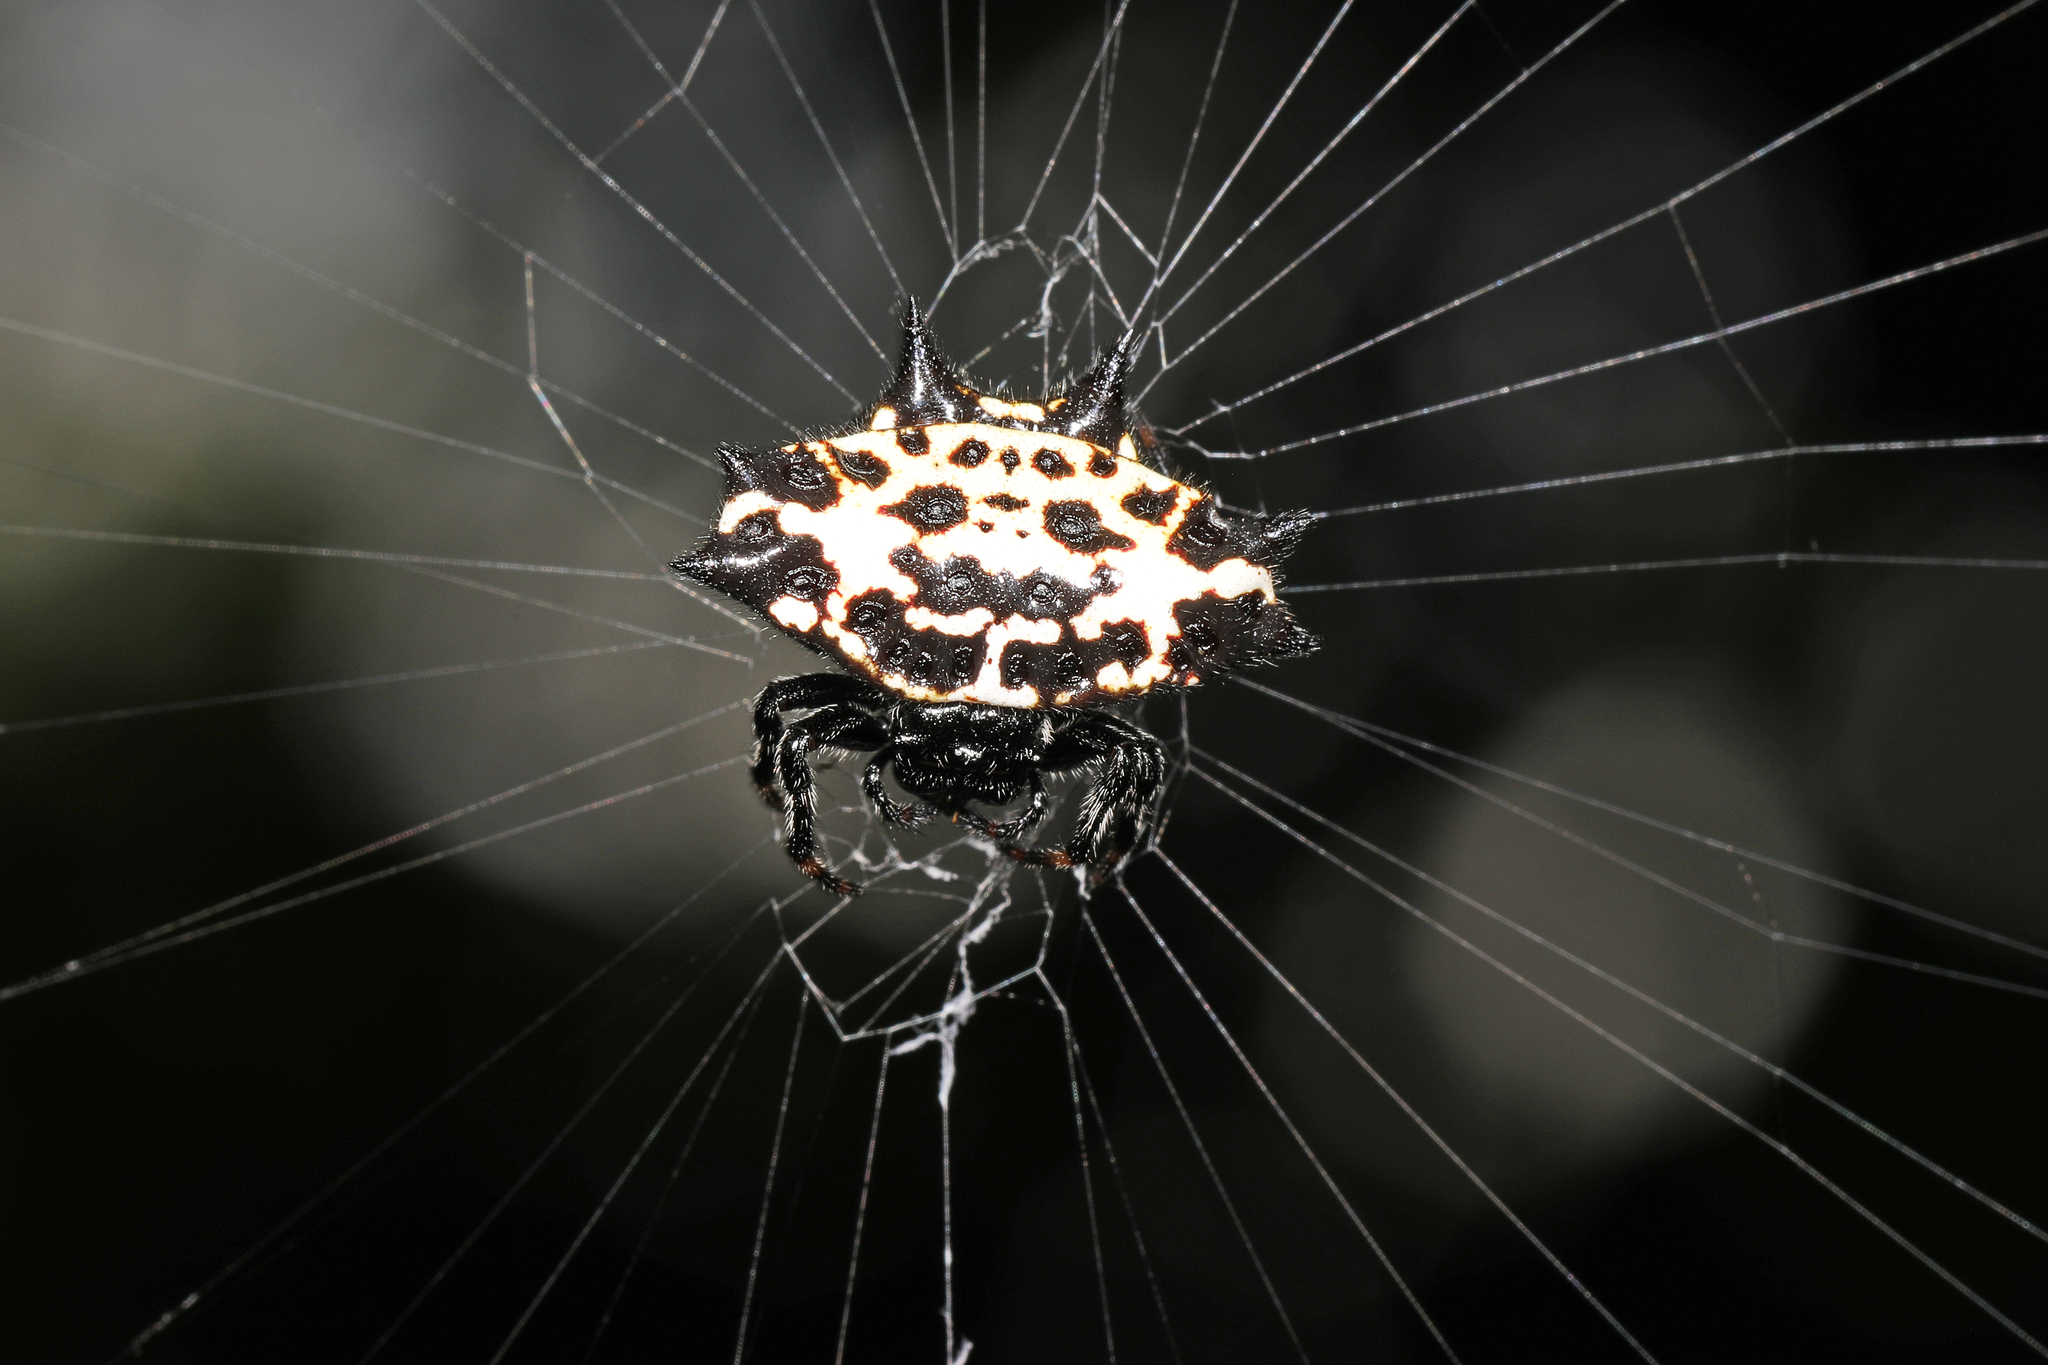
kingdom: Animalia
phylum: Arthropoda
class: Arachnida
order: Araneae
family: Araneidae
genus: Gasteracantha
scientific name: Gasteracantha cancriformis
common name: Orb weavers
